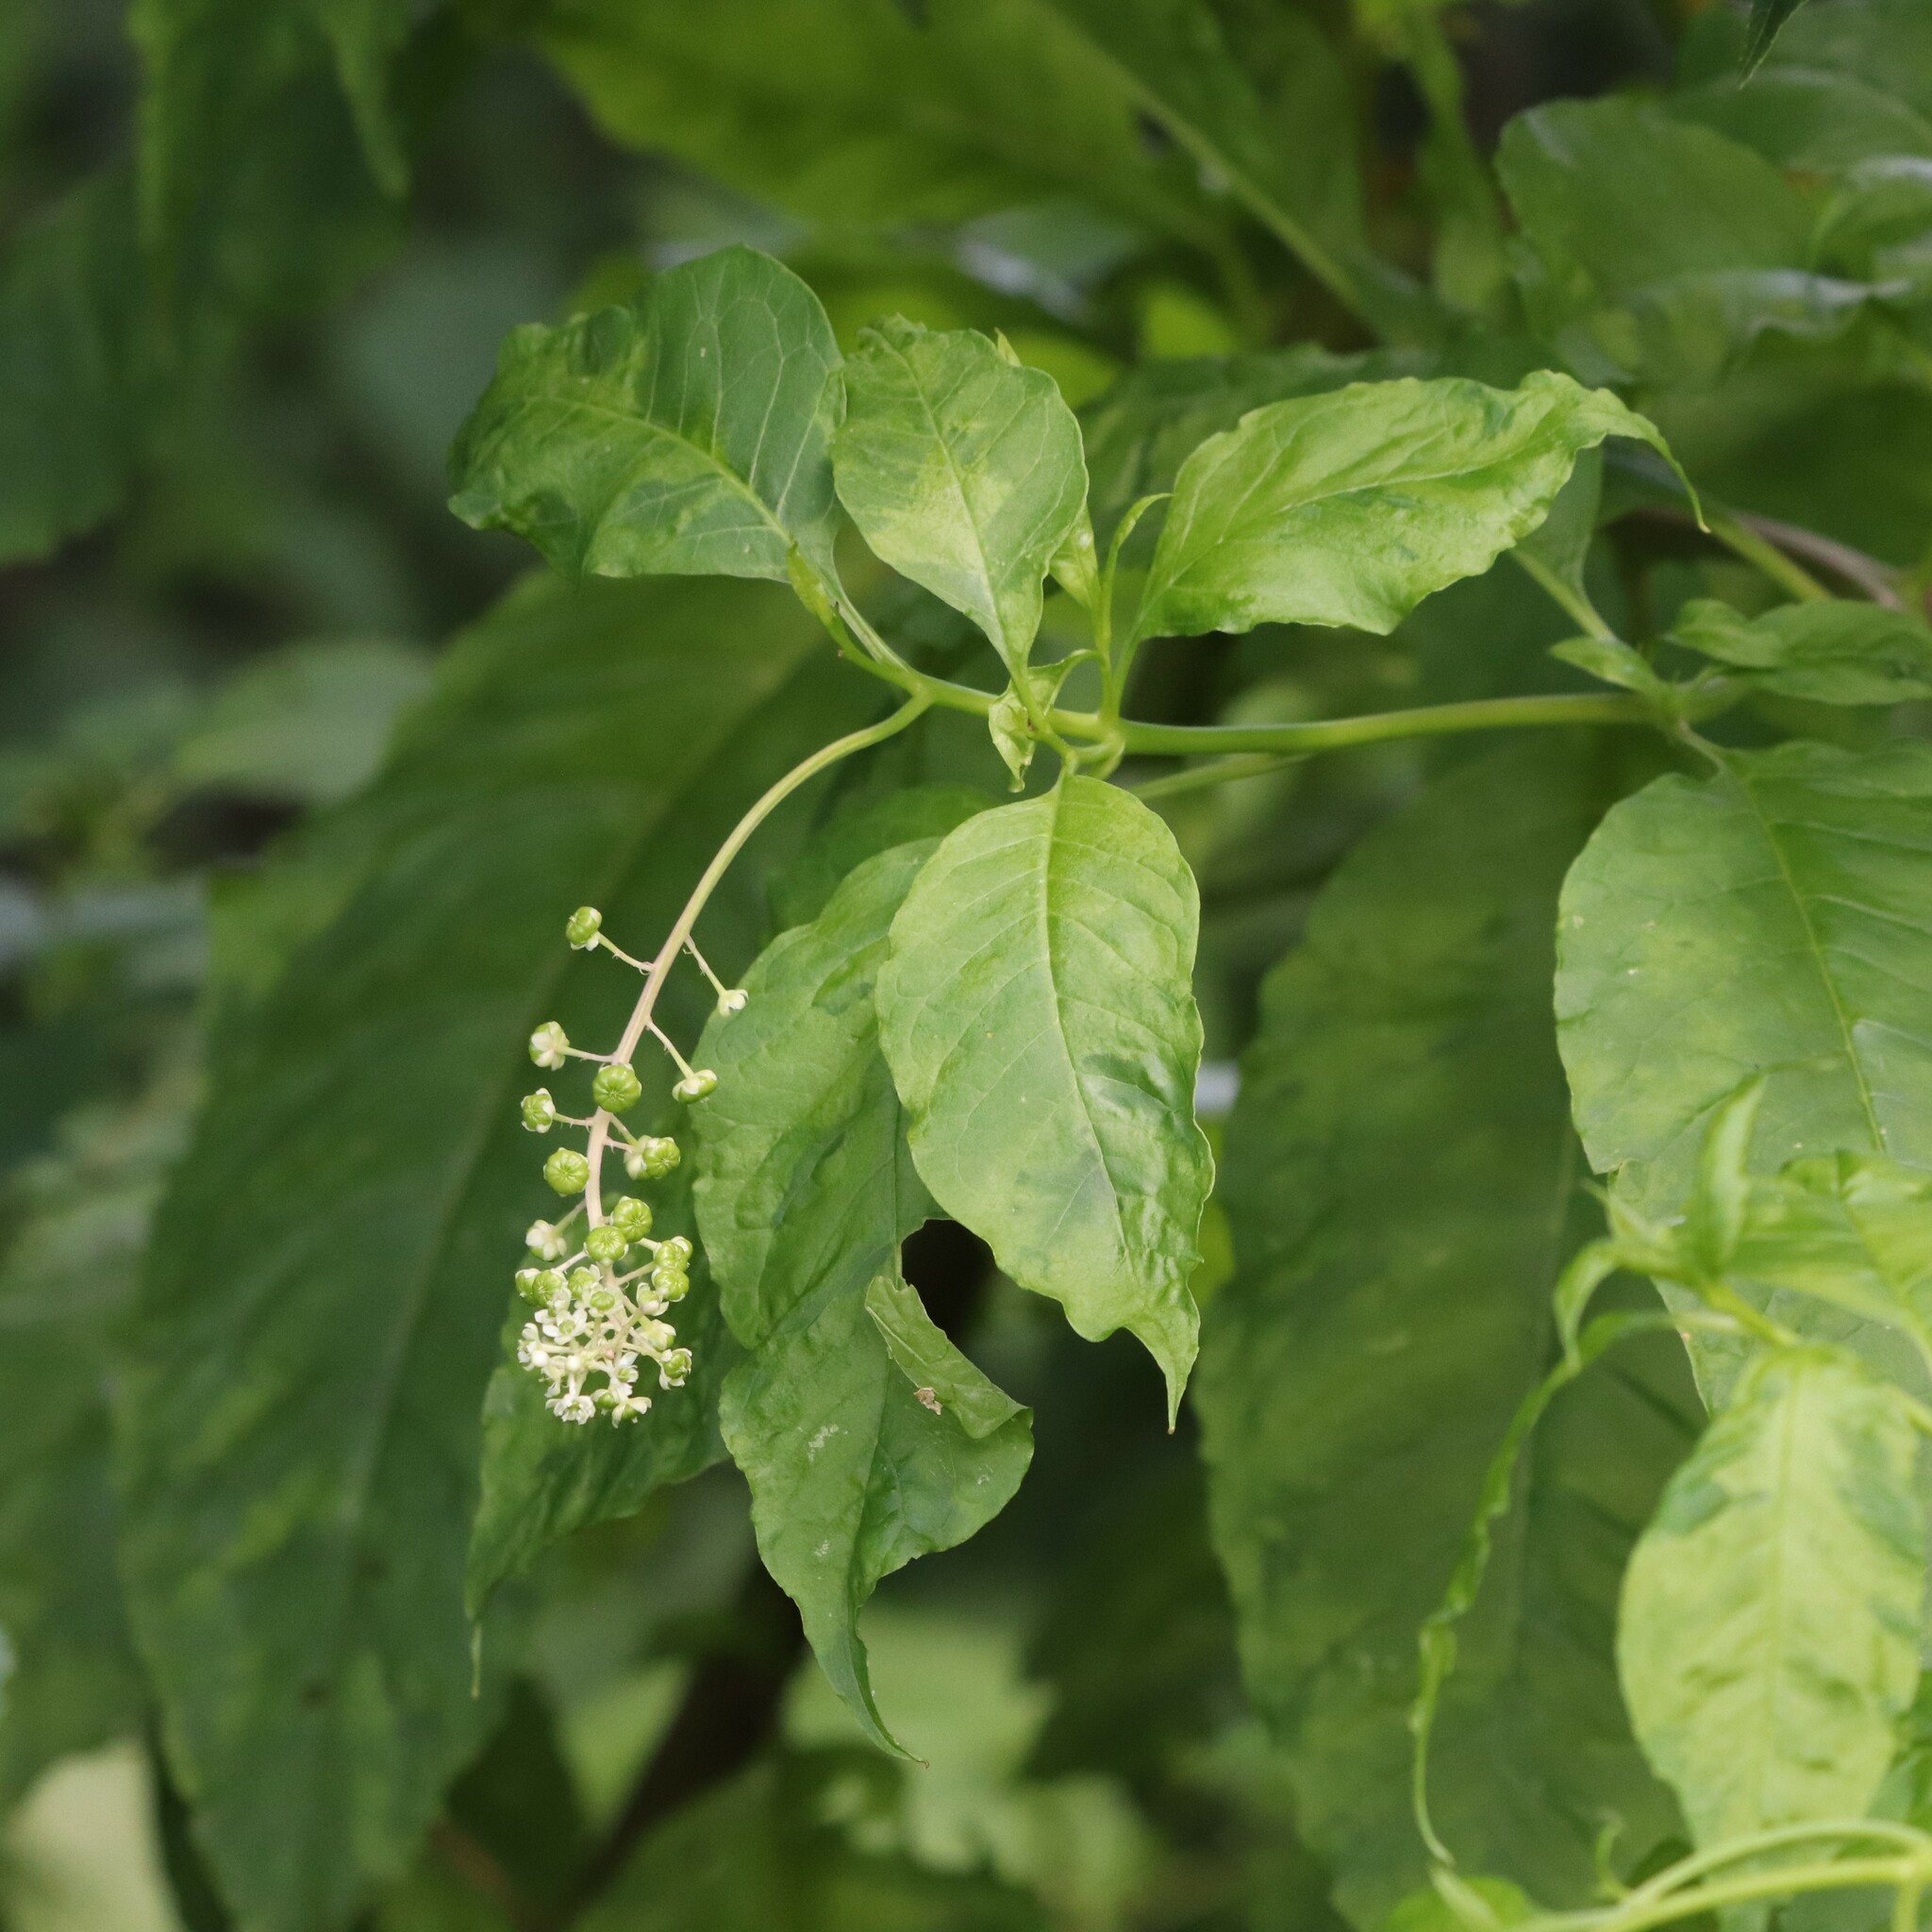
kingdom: Viruses
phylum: Pisuviricota
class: Stelpaviricetes
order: Patatavirales
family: Potyviridae
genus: Potyvirus
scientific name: Potyvirus Pokeweed mosaic virus
